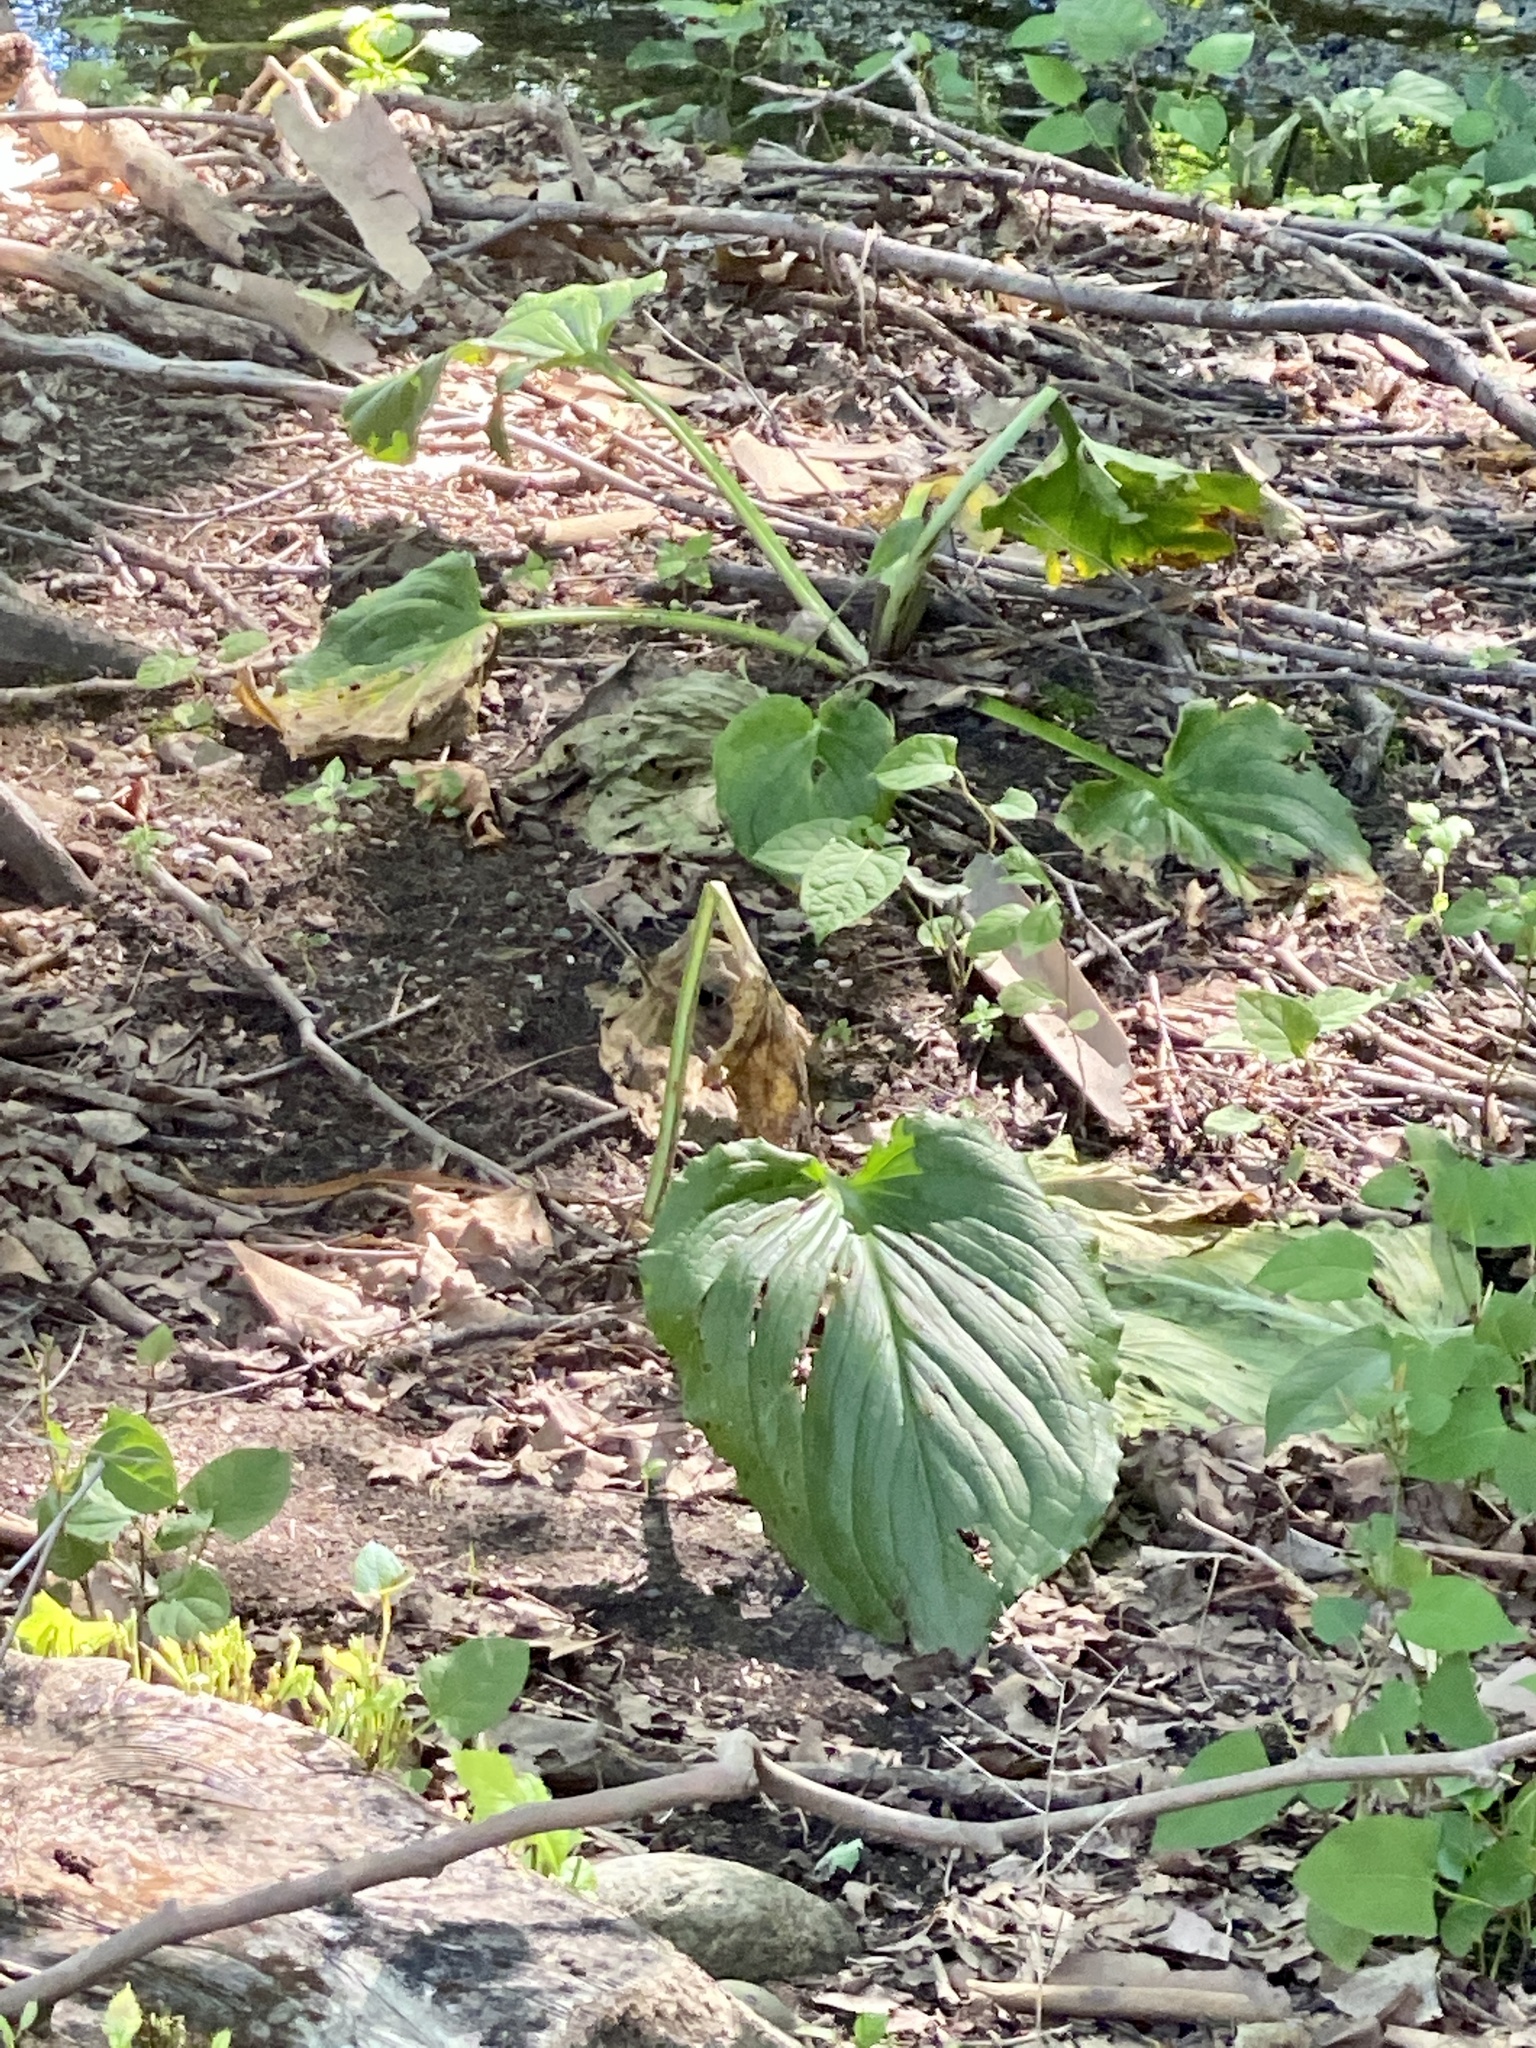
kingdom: Plantae
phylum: Tracheophyta
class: Liliopsida
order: Alismatales
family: Araceae
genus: Symplocarpus
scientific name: Symplocarpus foetidus
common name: Eastern skunk cabbage
